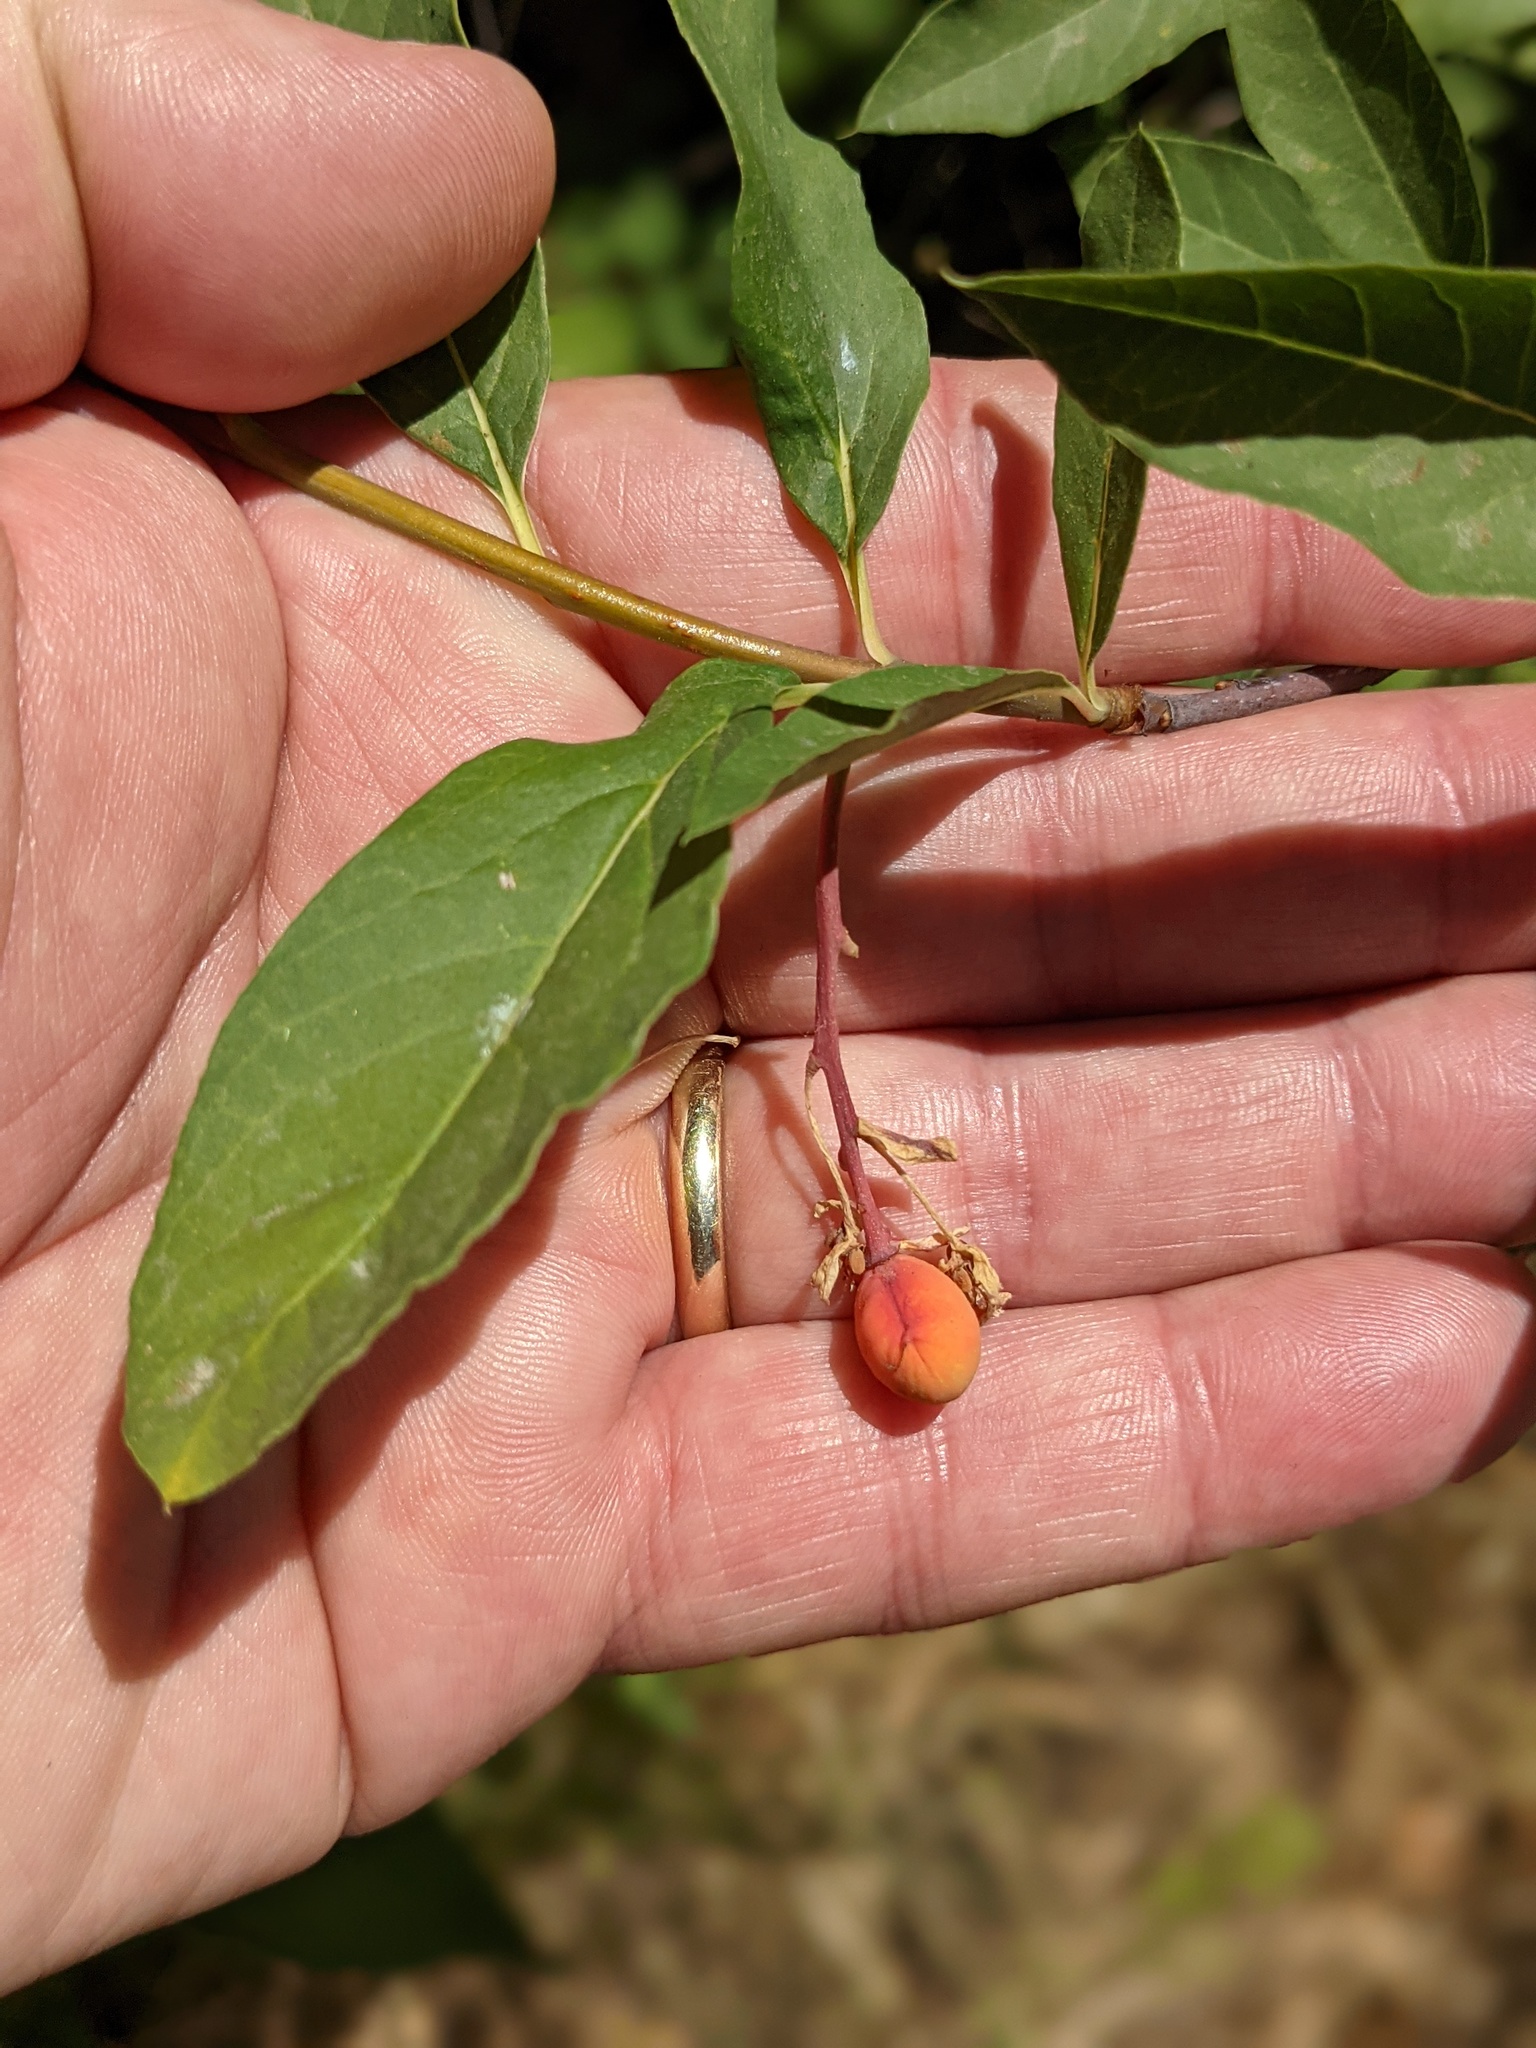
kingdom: Plantae
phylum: Tracheophyta
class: Magnoliopsida
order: Rosales
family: Rosaceae
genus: Oemleria
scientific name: Oemleria cerasiformis
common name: Osoberry
